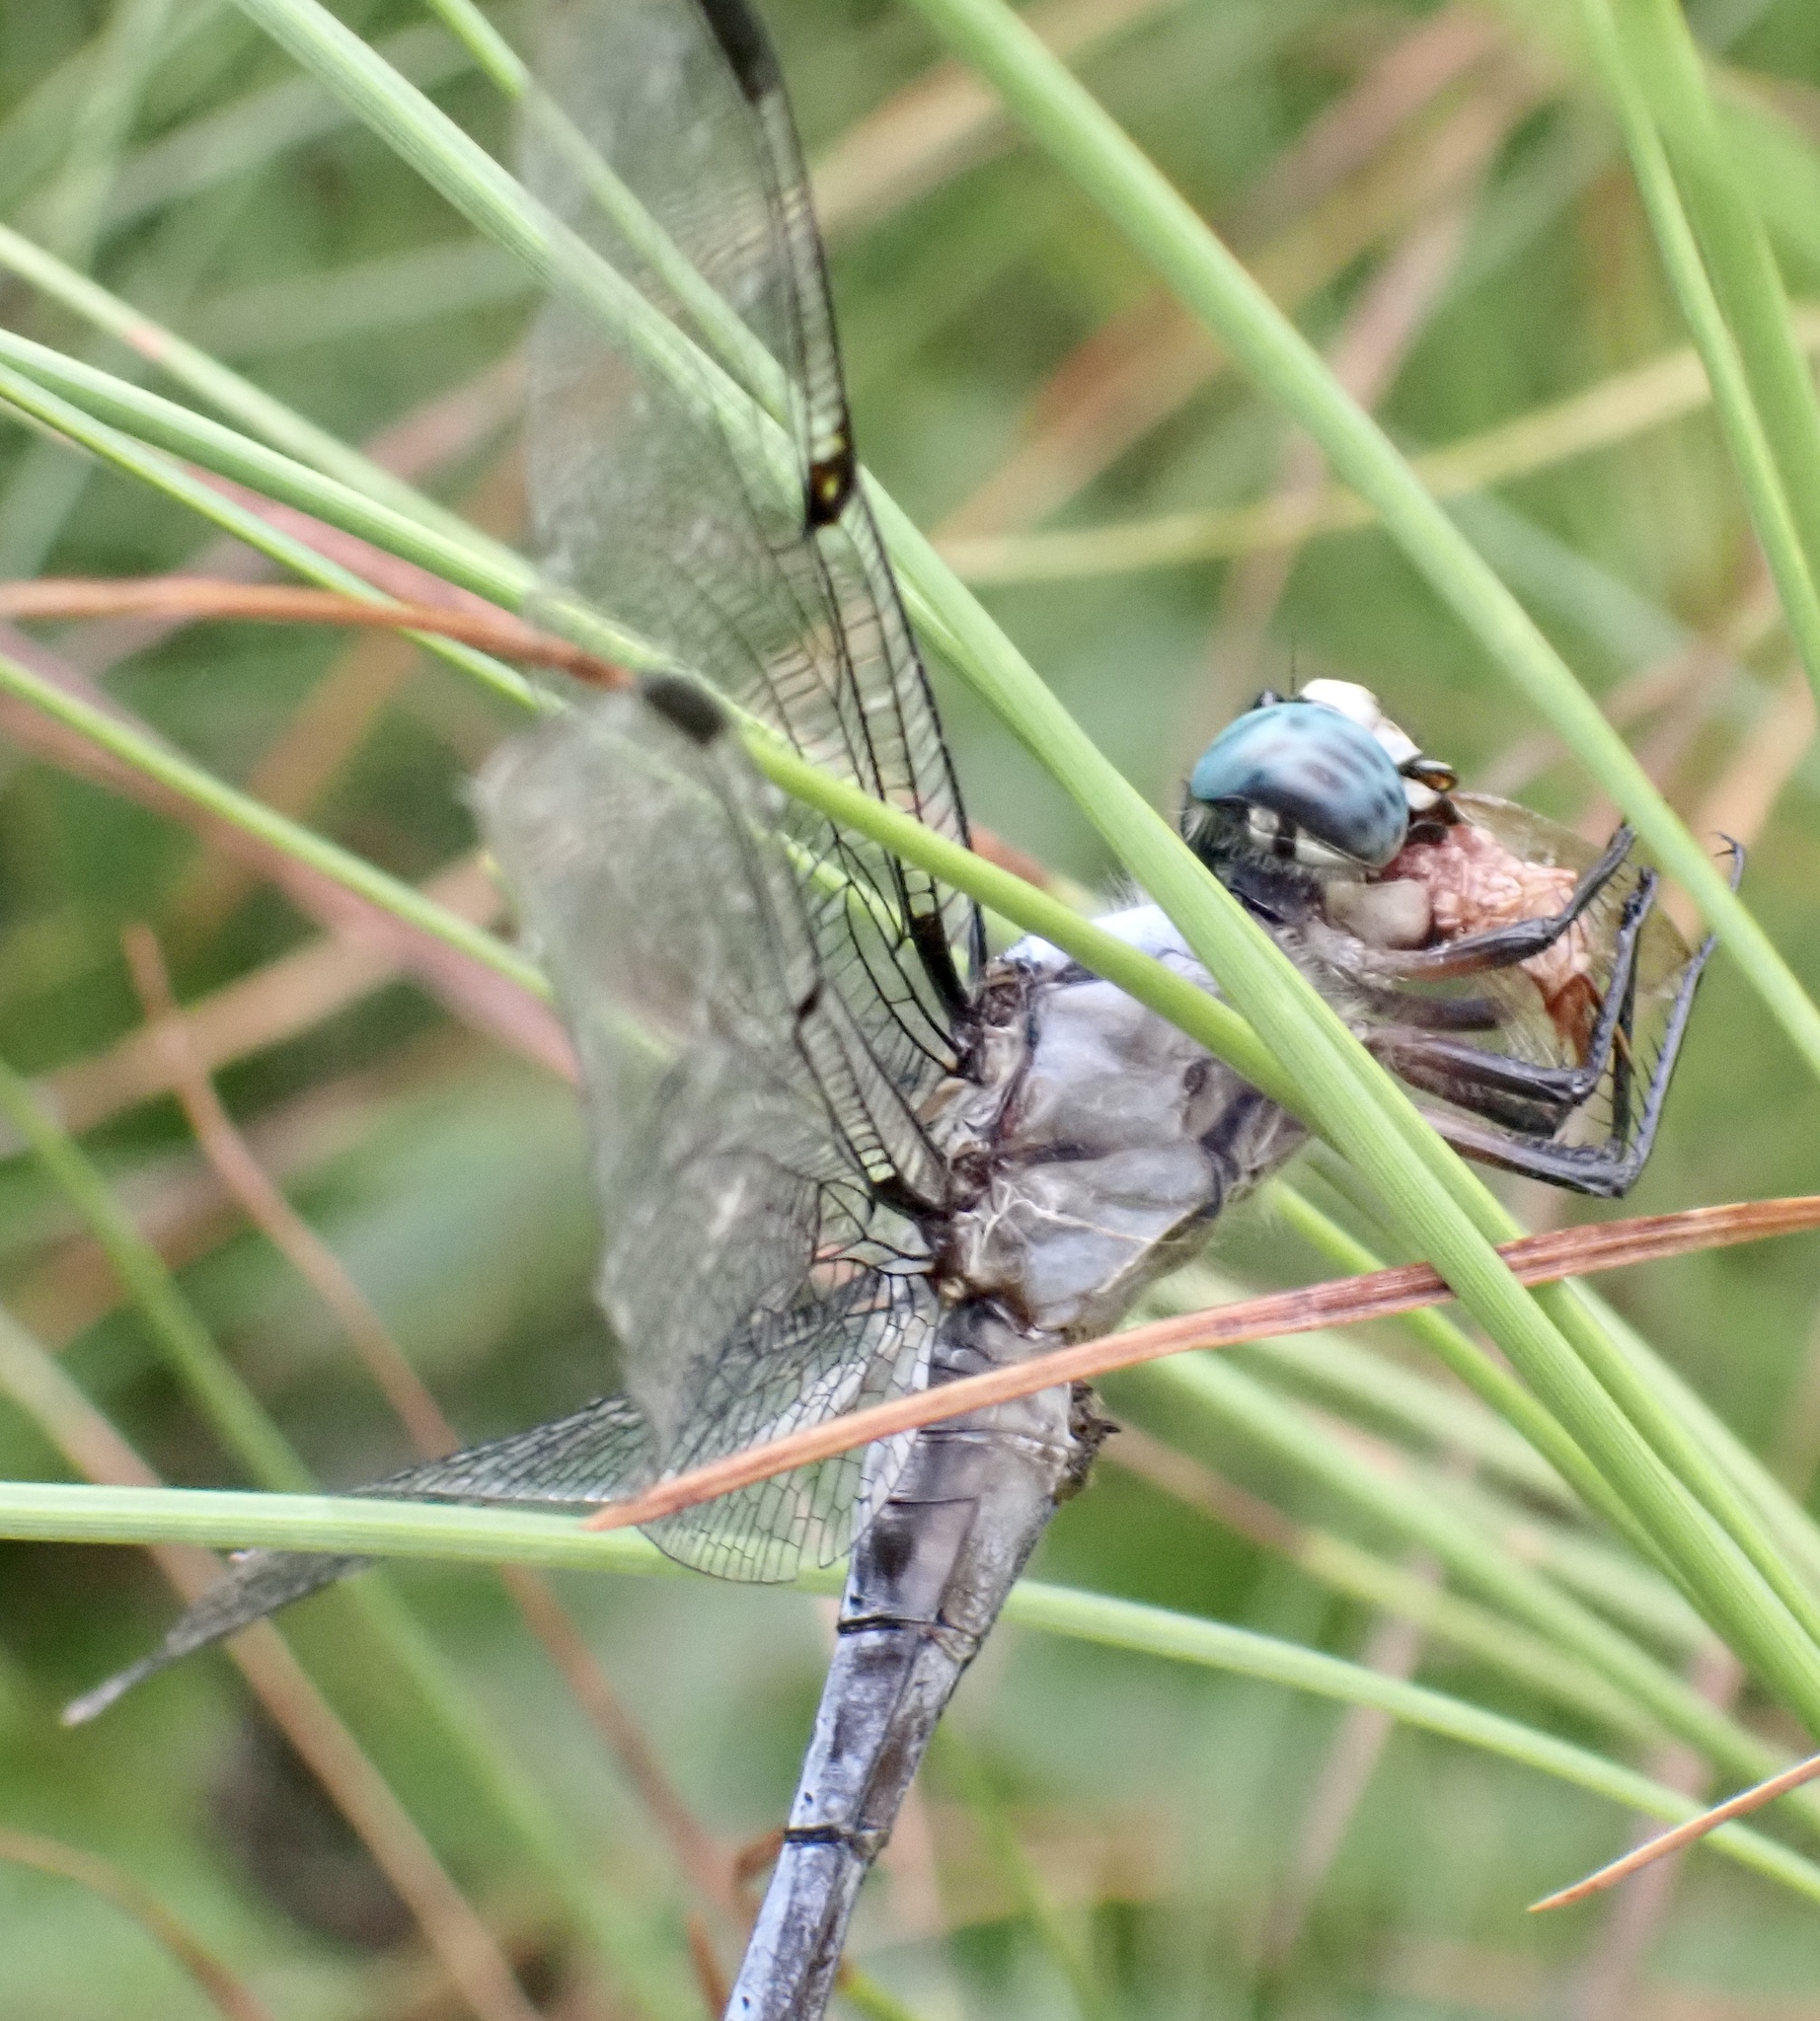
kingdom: Animalia
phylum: Arthropoda
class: Insecta
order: Odonata
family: Libellulidae
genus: Libellula
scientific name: Libellula vibrans
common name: Great blue skimmer
